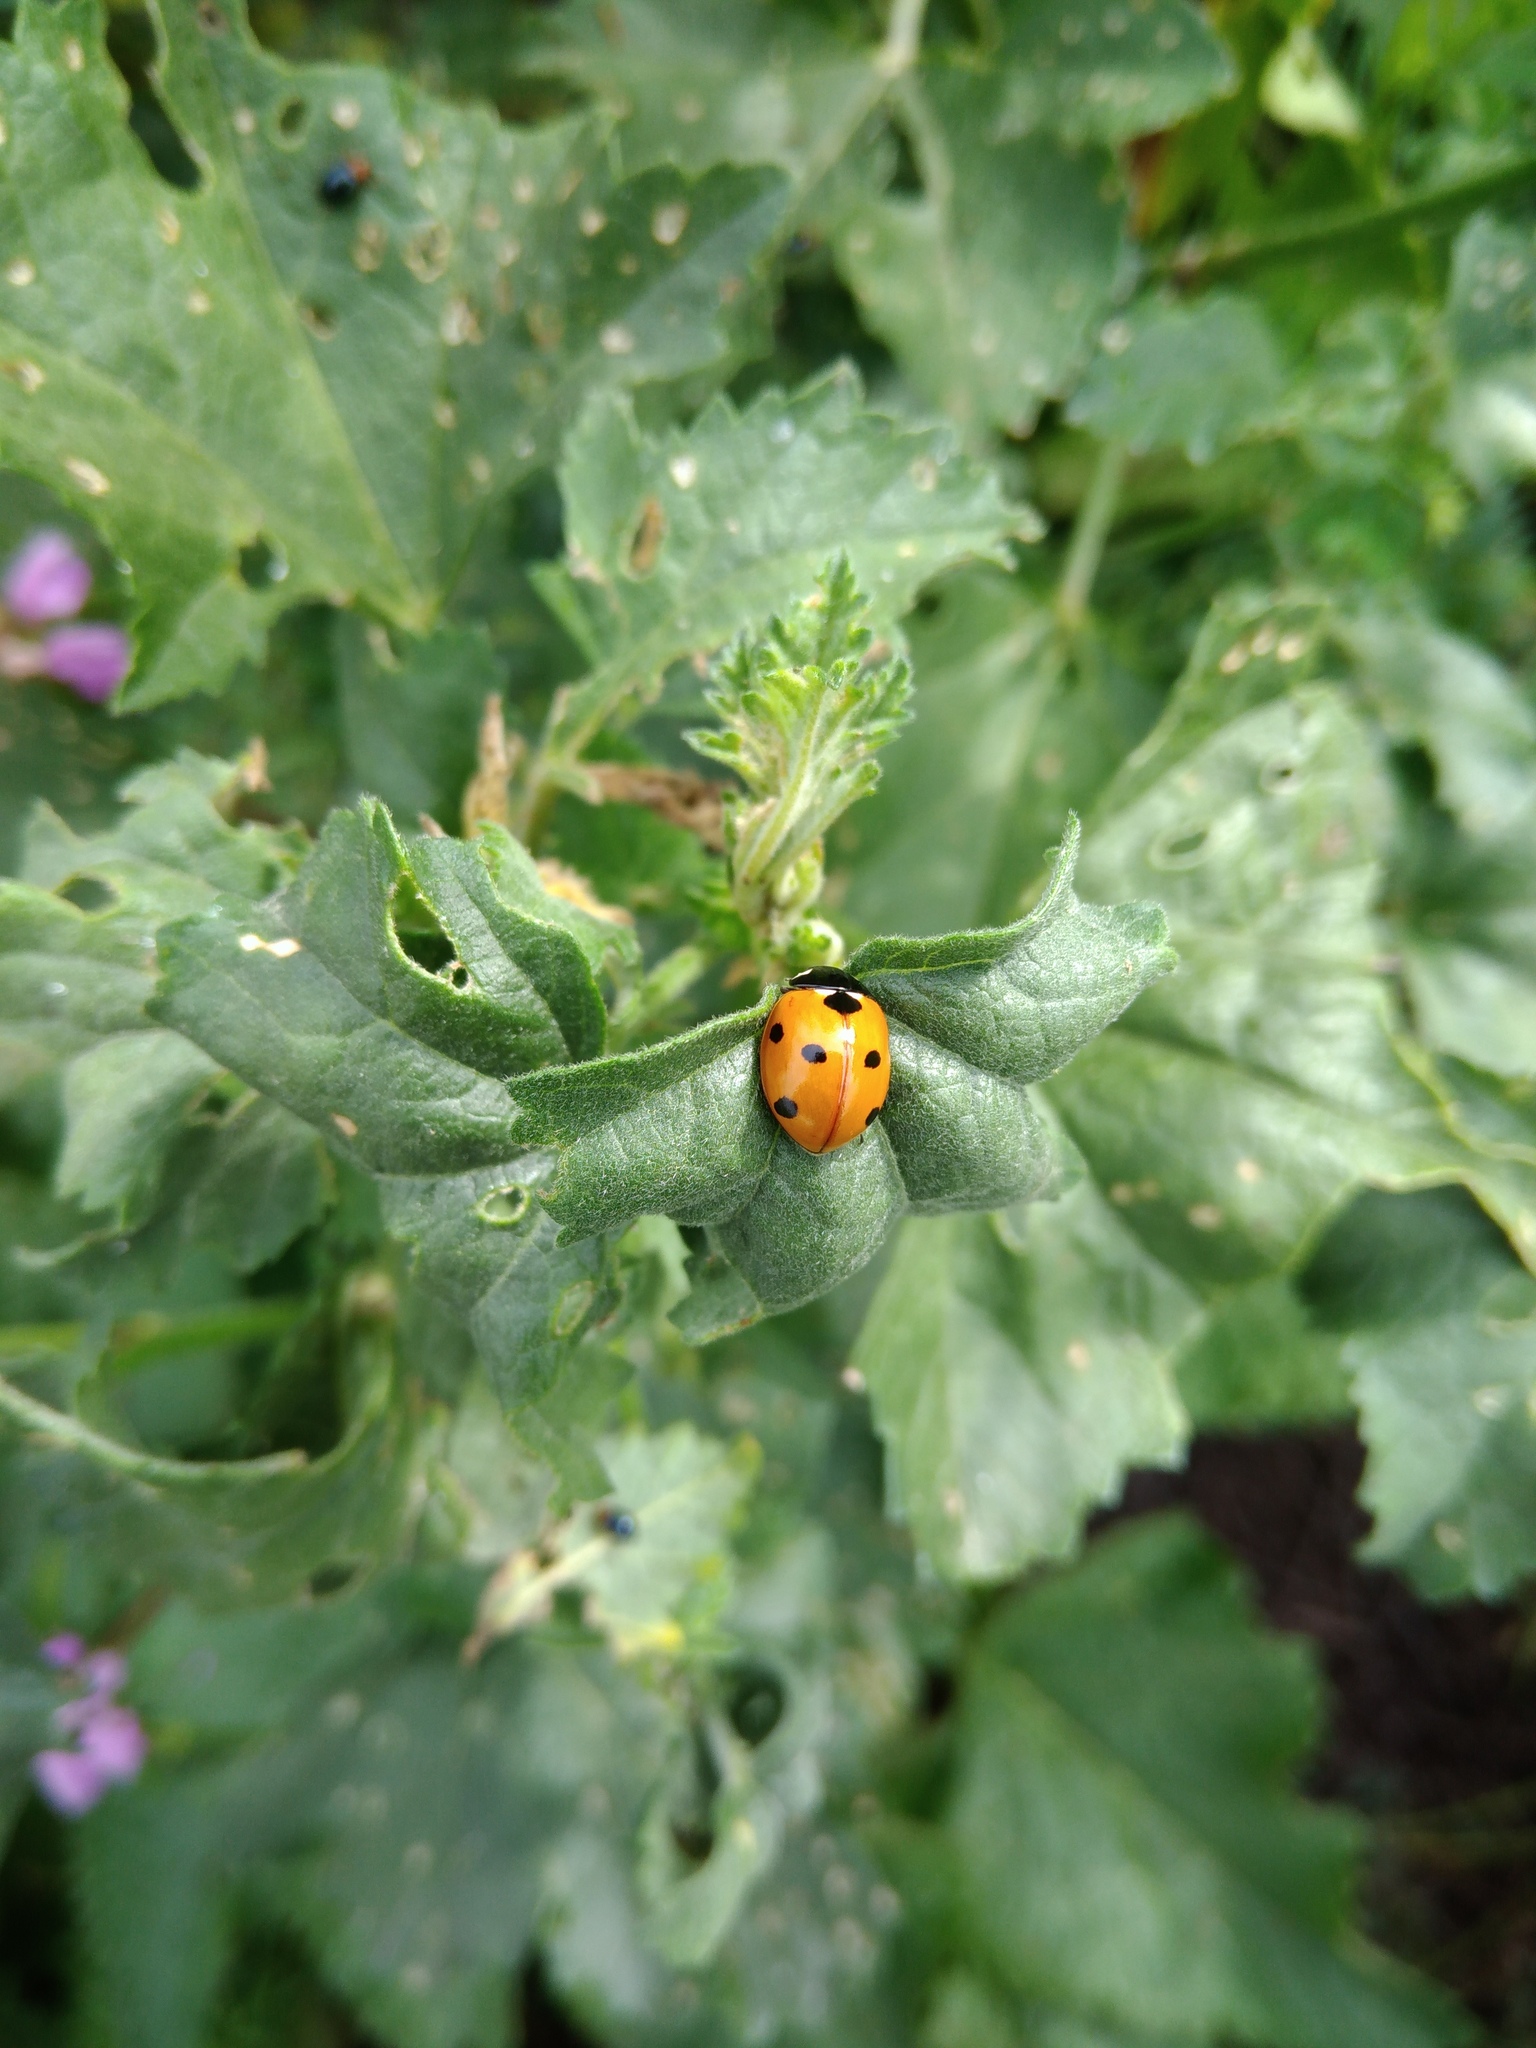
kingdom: Animalia
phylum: Arthropoda
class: Insecta
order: Coleoptera
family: Coccinellidae
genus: Coccinella
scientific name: Coccinella septempunctata
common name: Sevenspotted lady beetle
